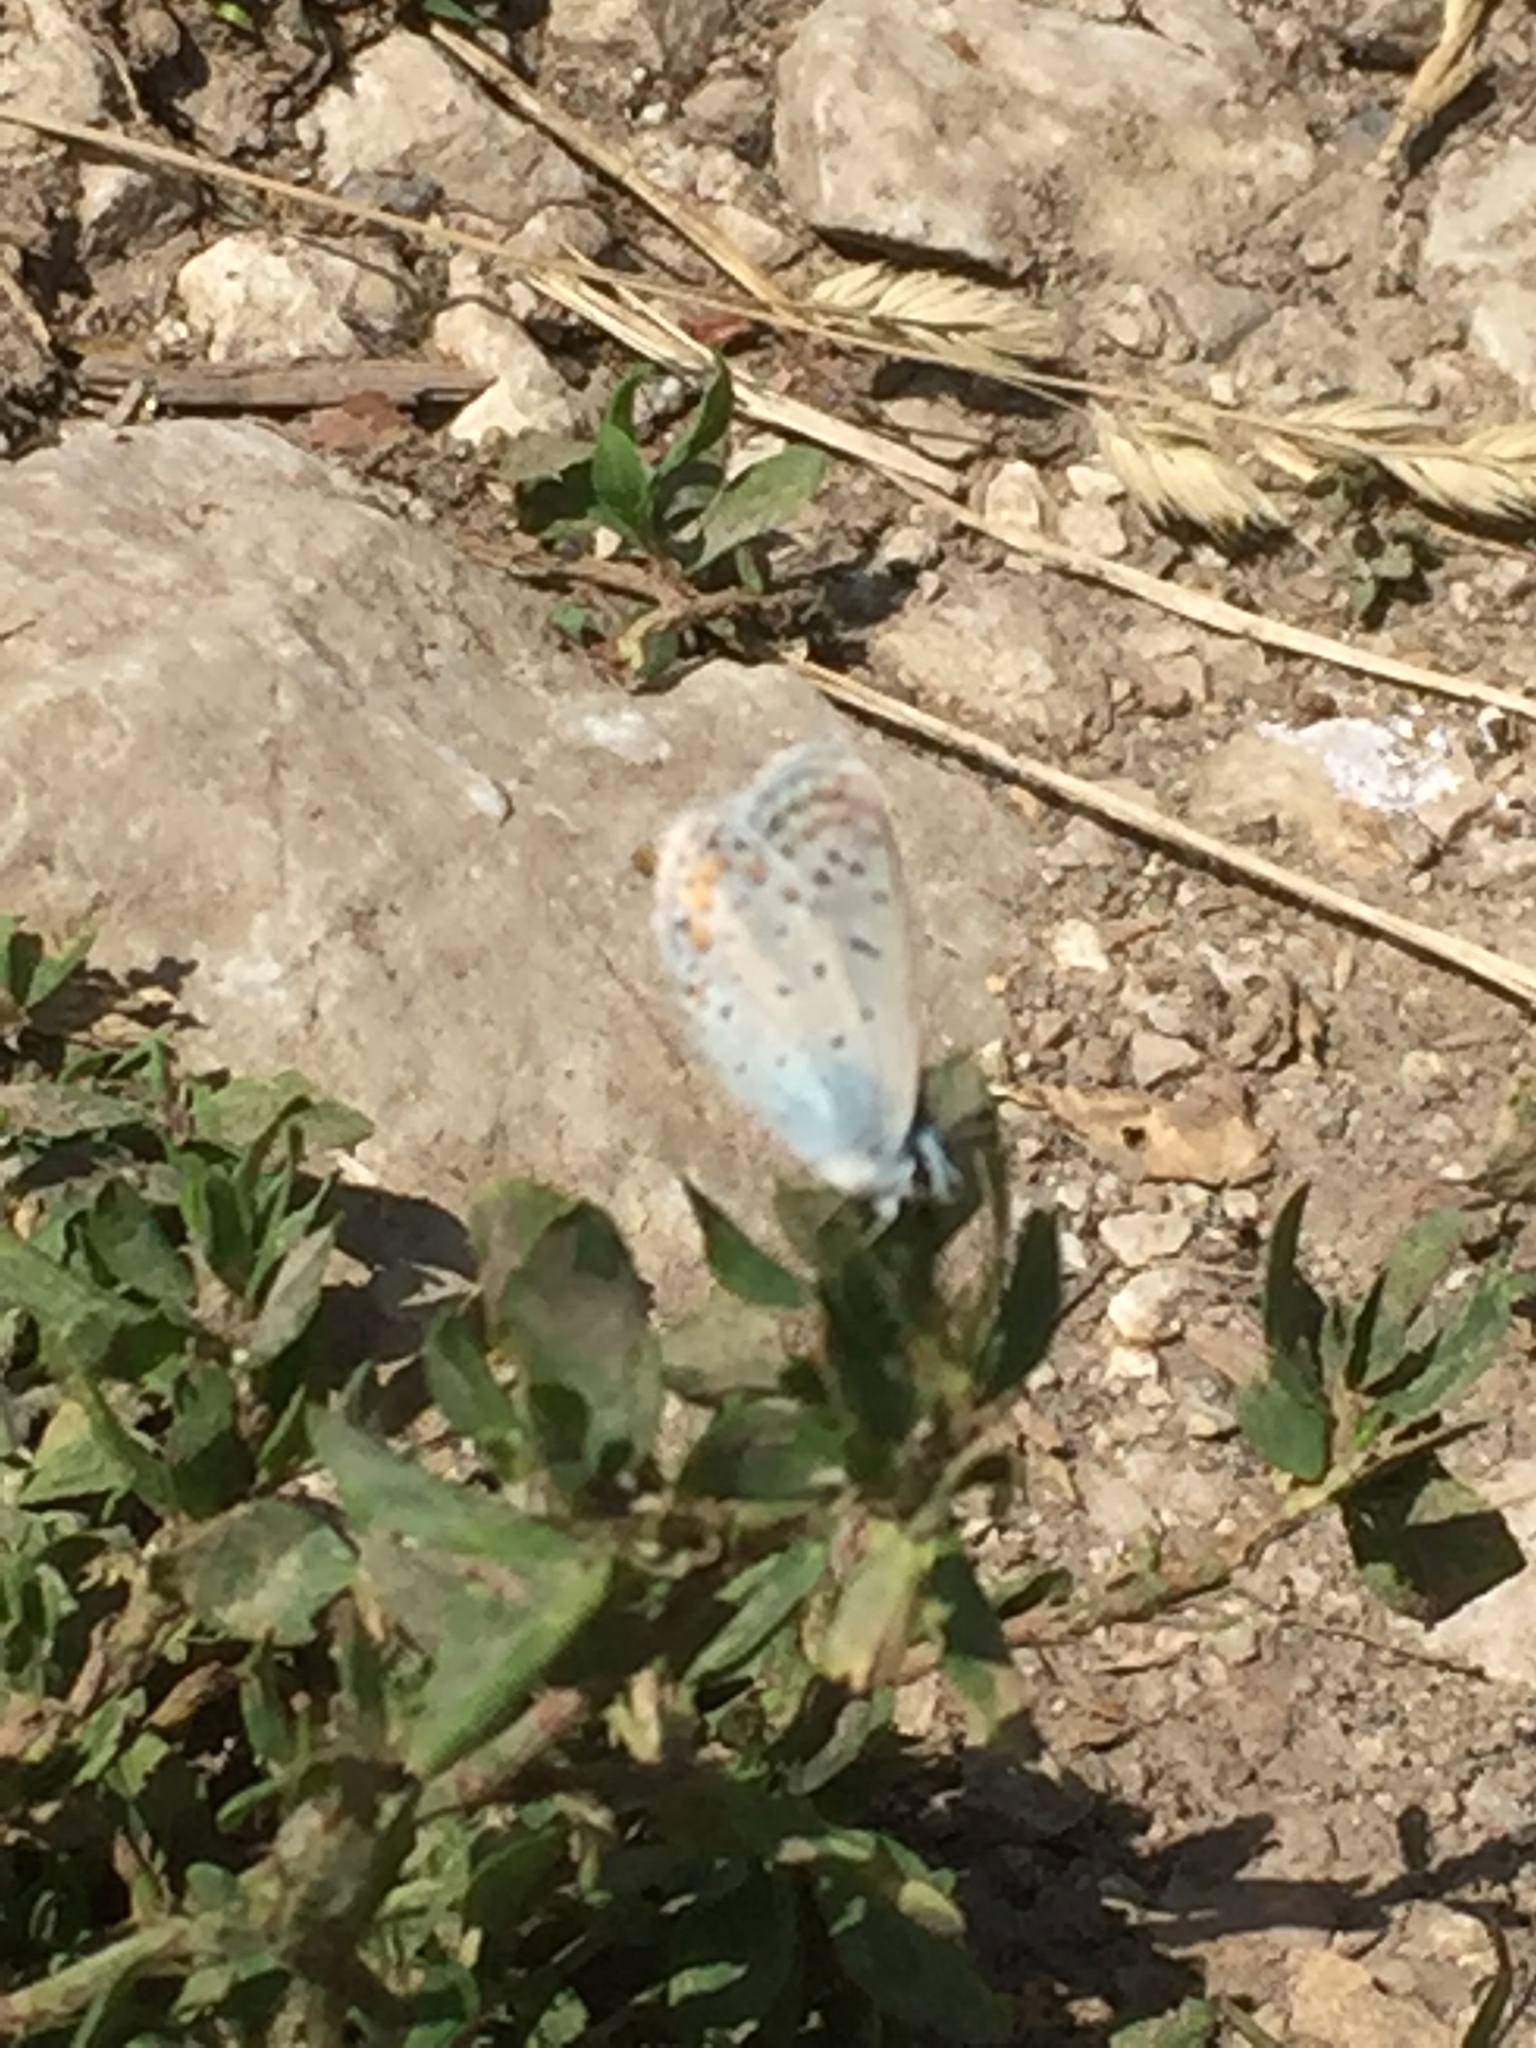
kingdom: Animalia
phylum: Arthropoda
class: Insecta
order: Lepidoptera
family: Lycaenidae
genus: Polyommatus
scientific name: Polyommatus icarus
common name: Common blue
